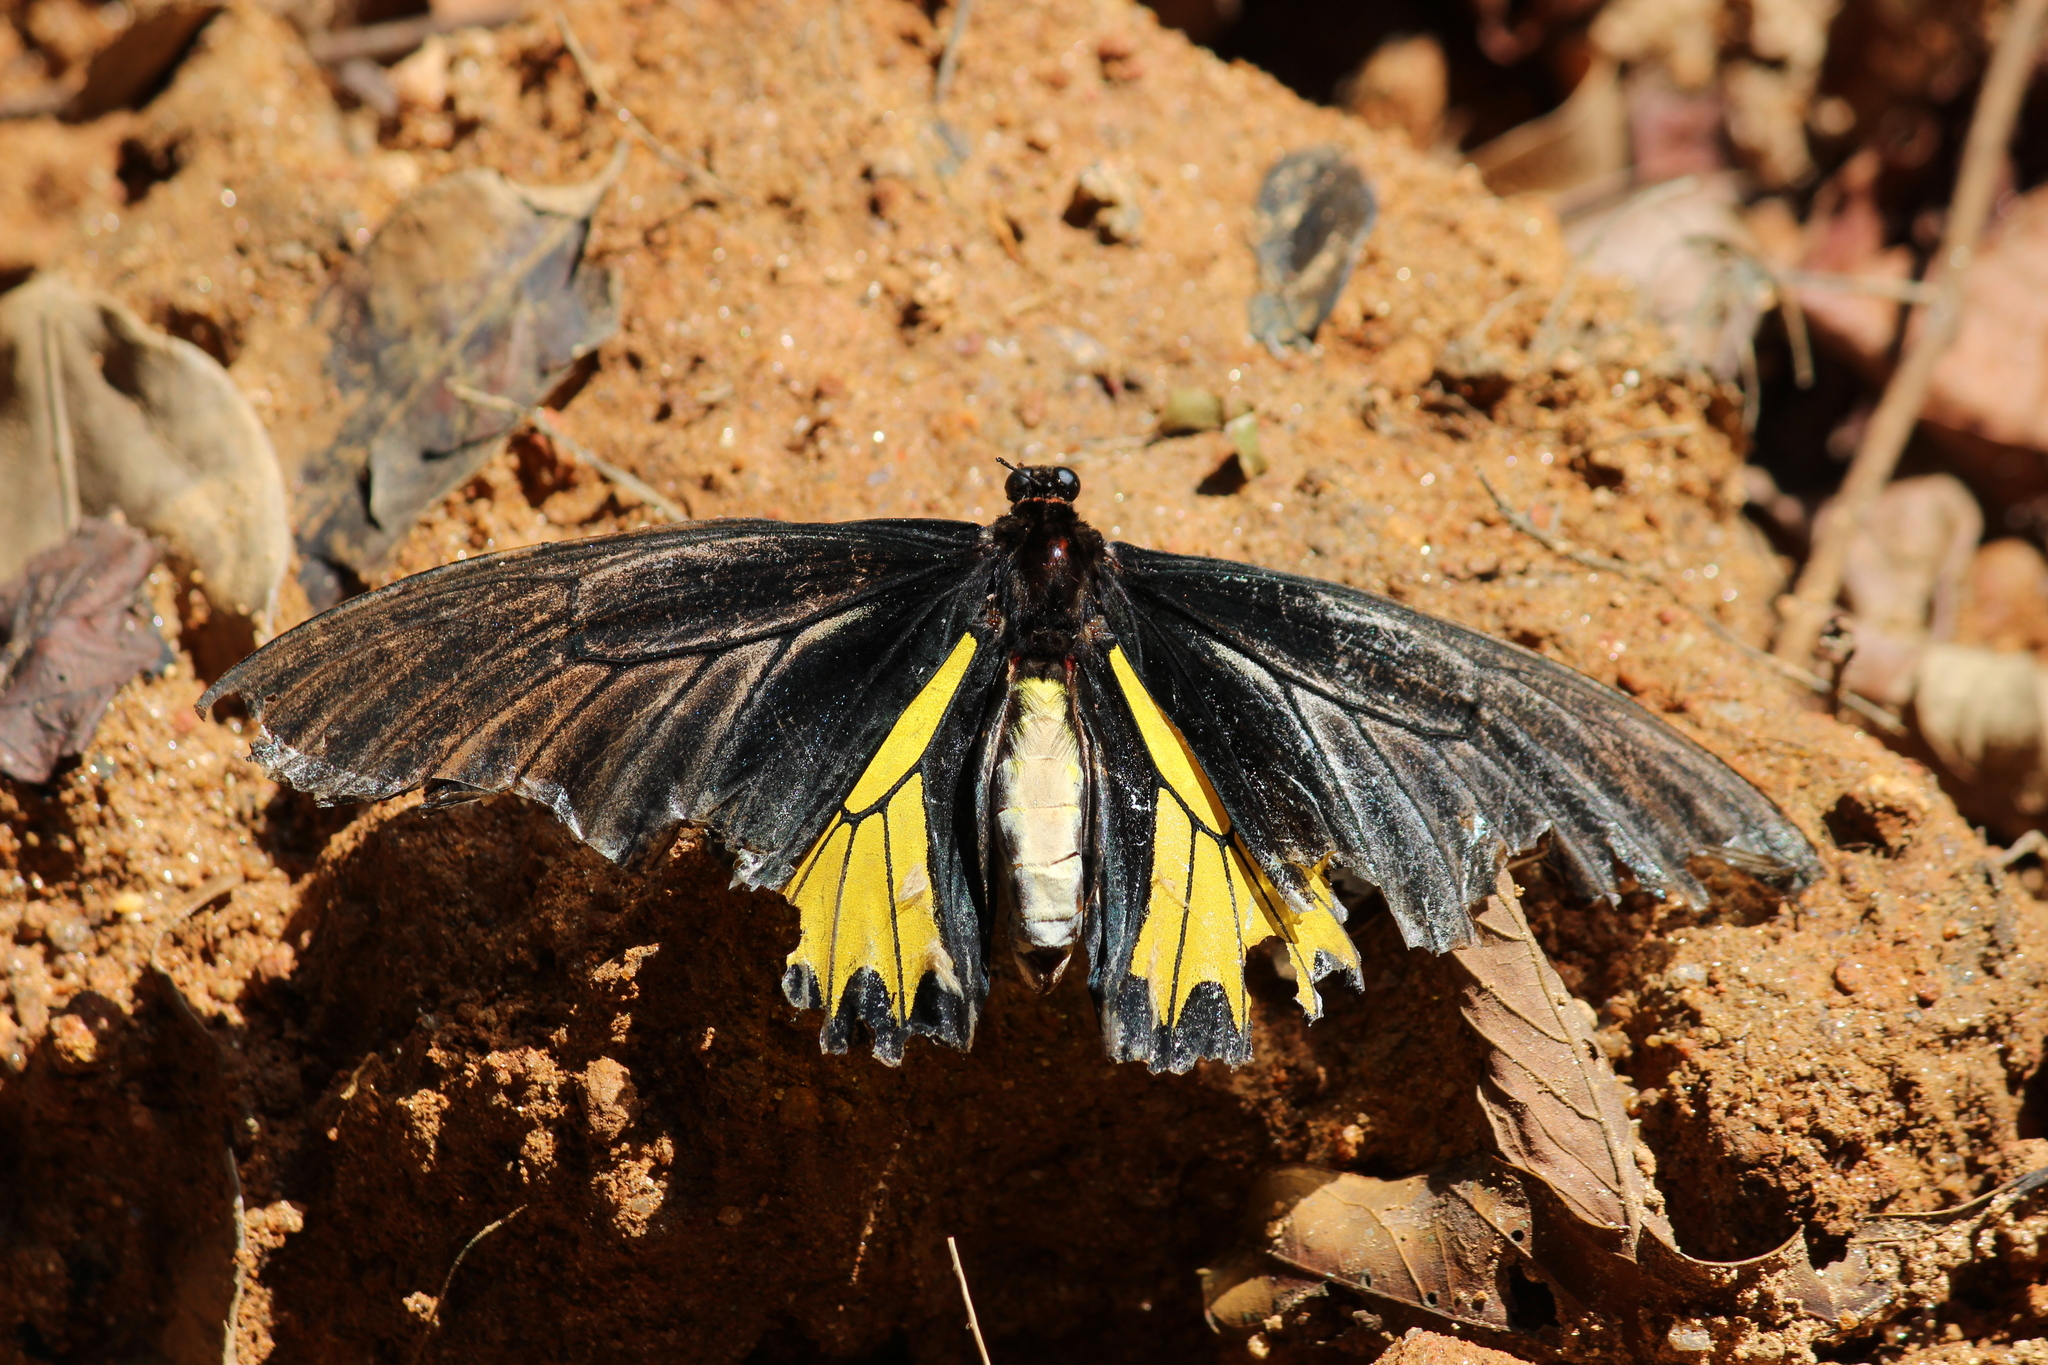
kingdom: Animalia
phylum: Arthropoda
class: Insecta
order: Lepidoptera
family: Papilionidae
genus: Troides
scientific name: Troides minos
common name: Malabar birdwing
